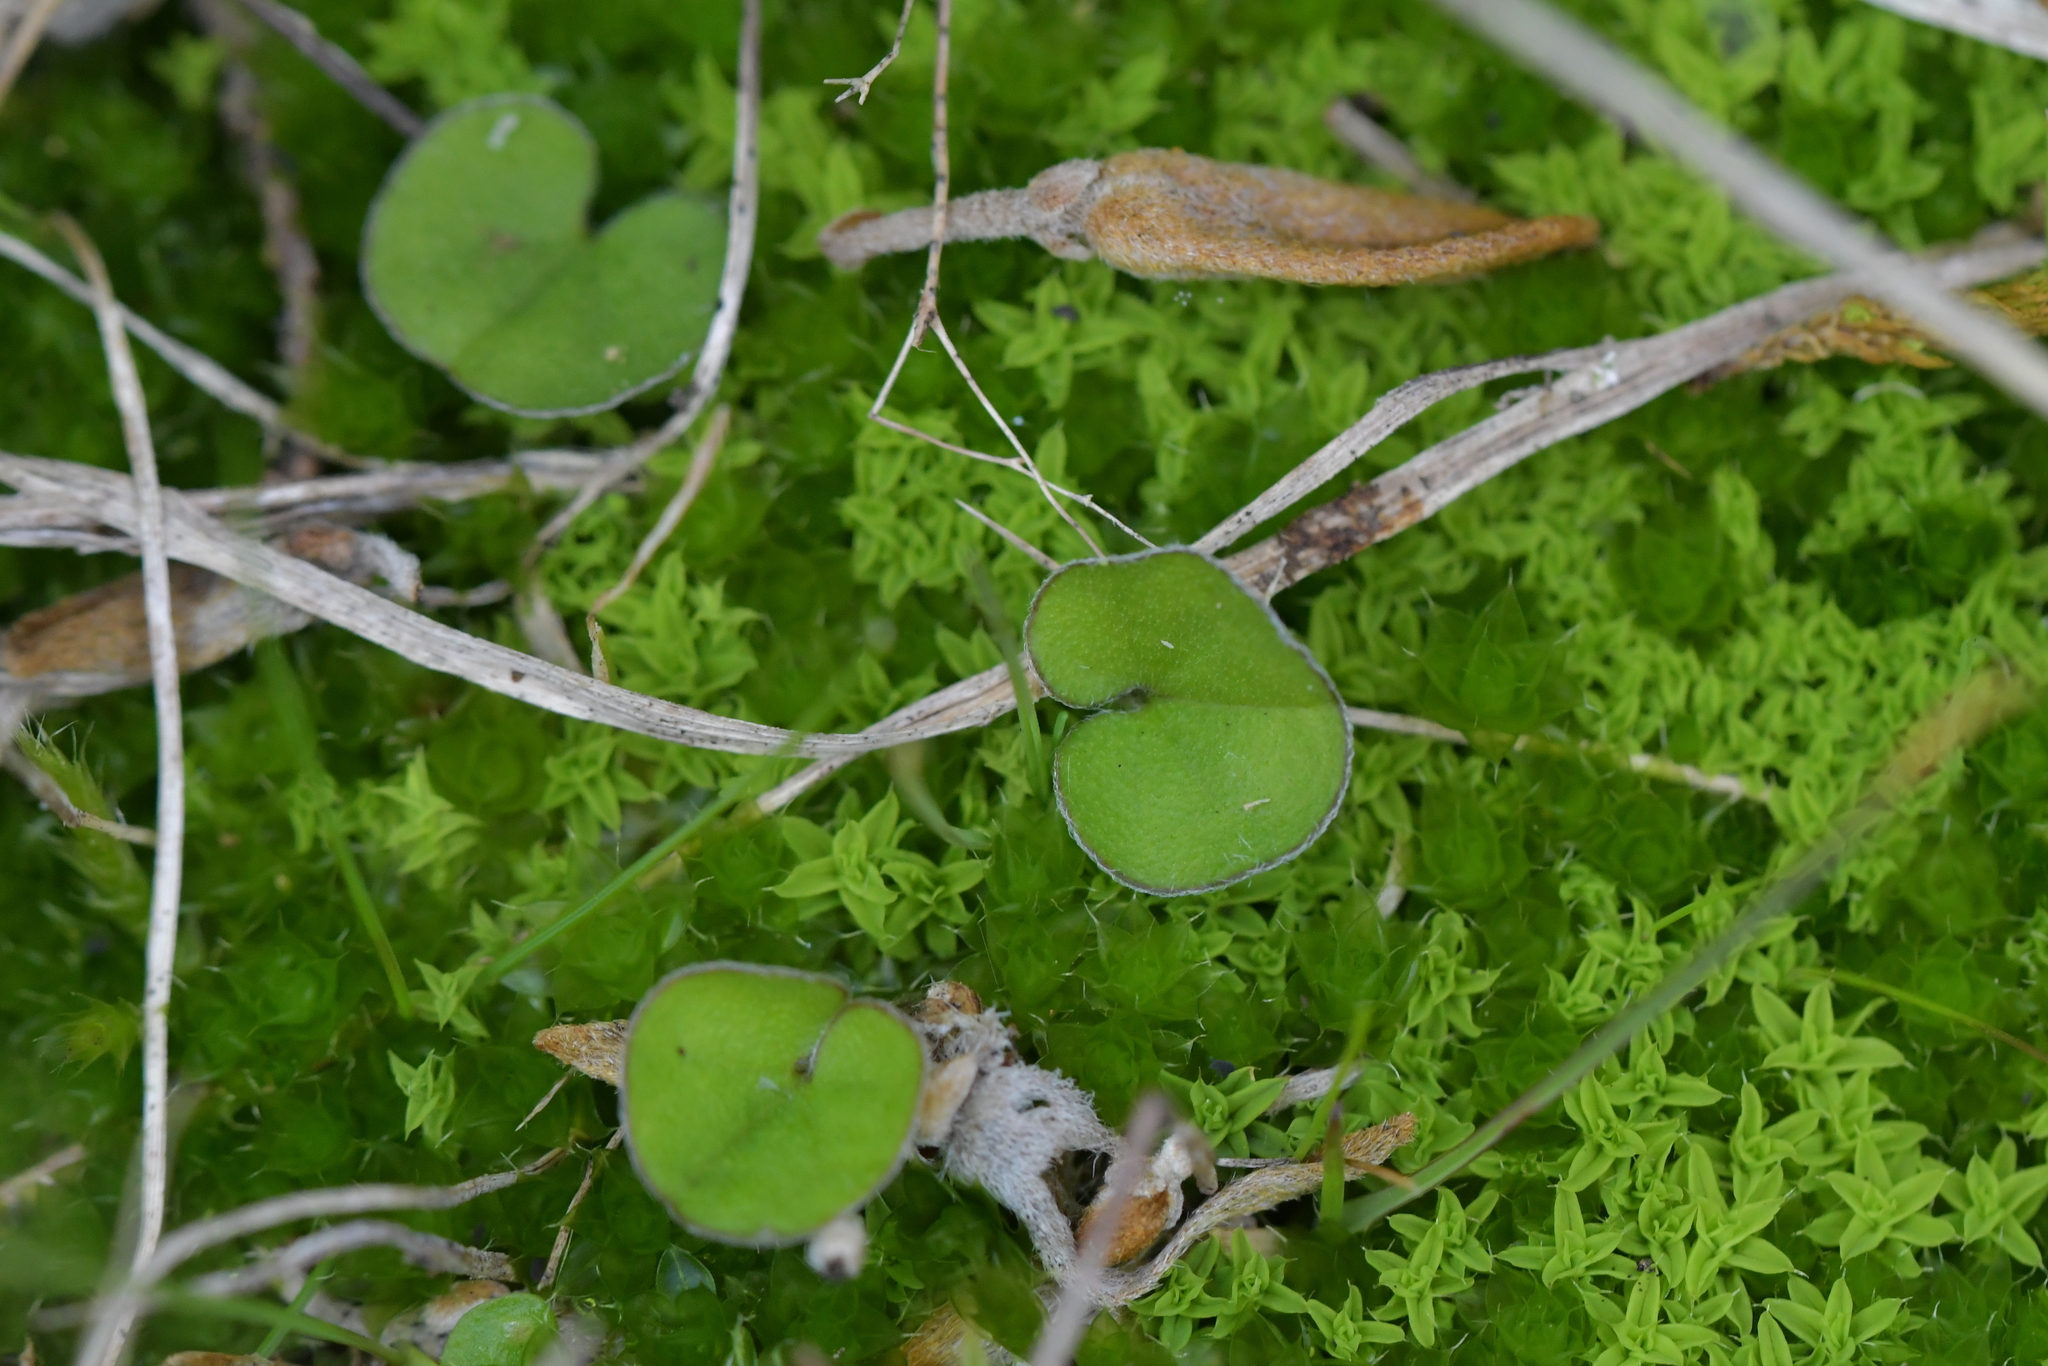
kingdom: Plantae
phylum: Tracheophyta
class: Magnoliopsida
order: Solanales
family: Convolvulaceae
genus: Dichondra
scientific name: Dichondra repens
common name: Kidneyweed
